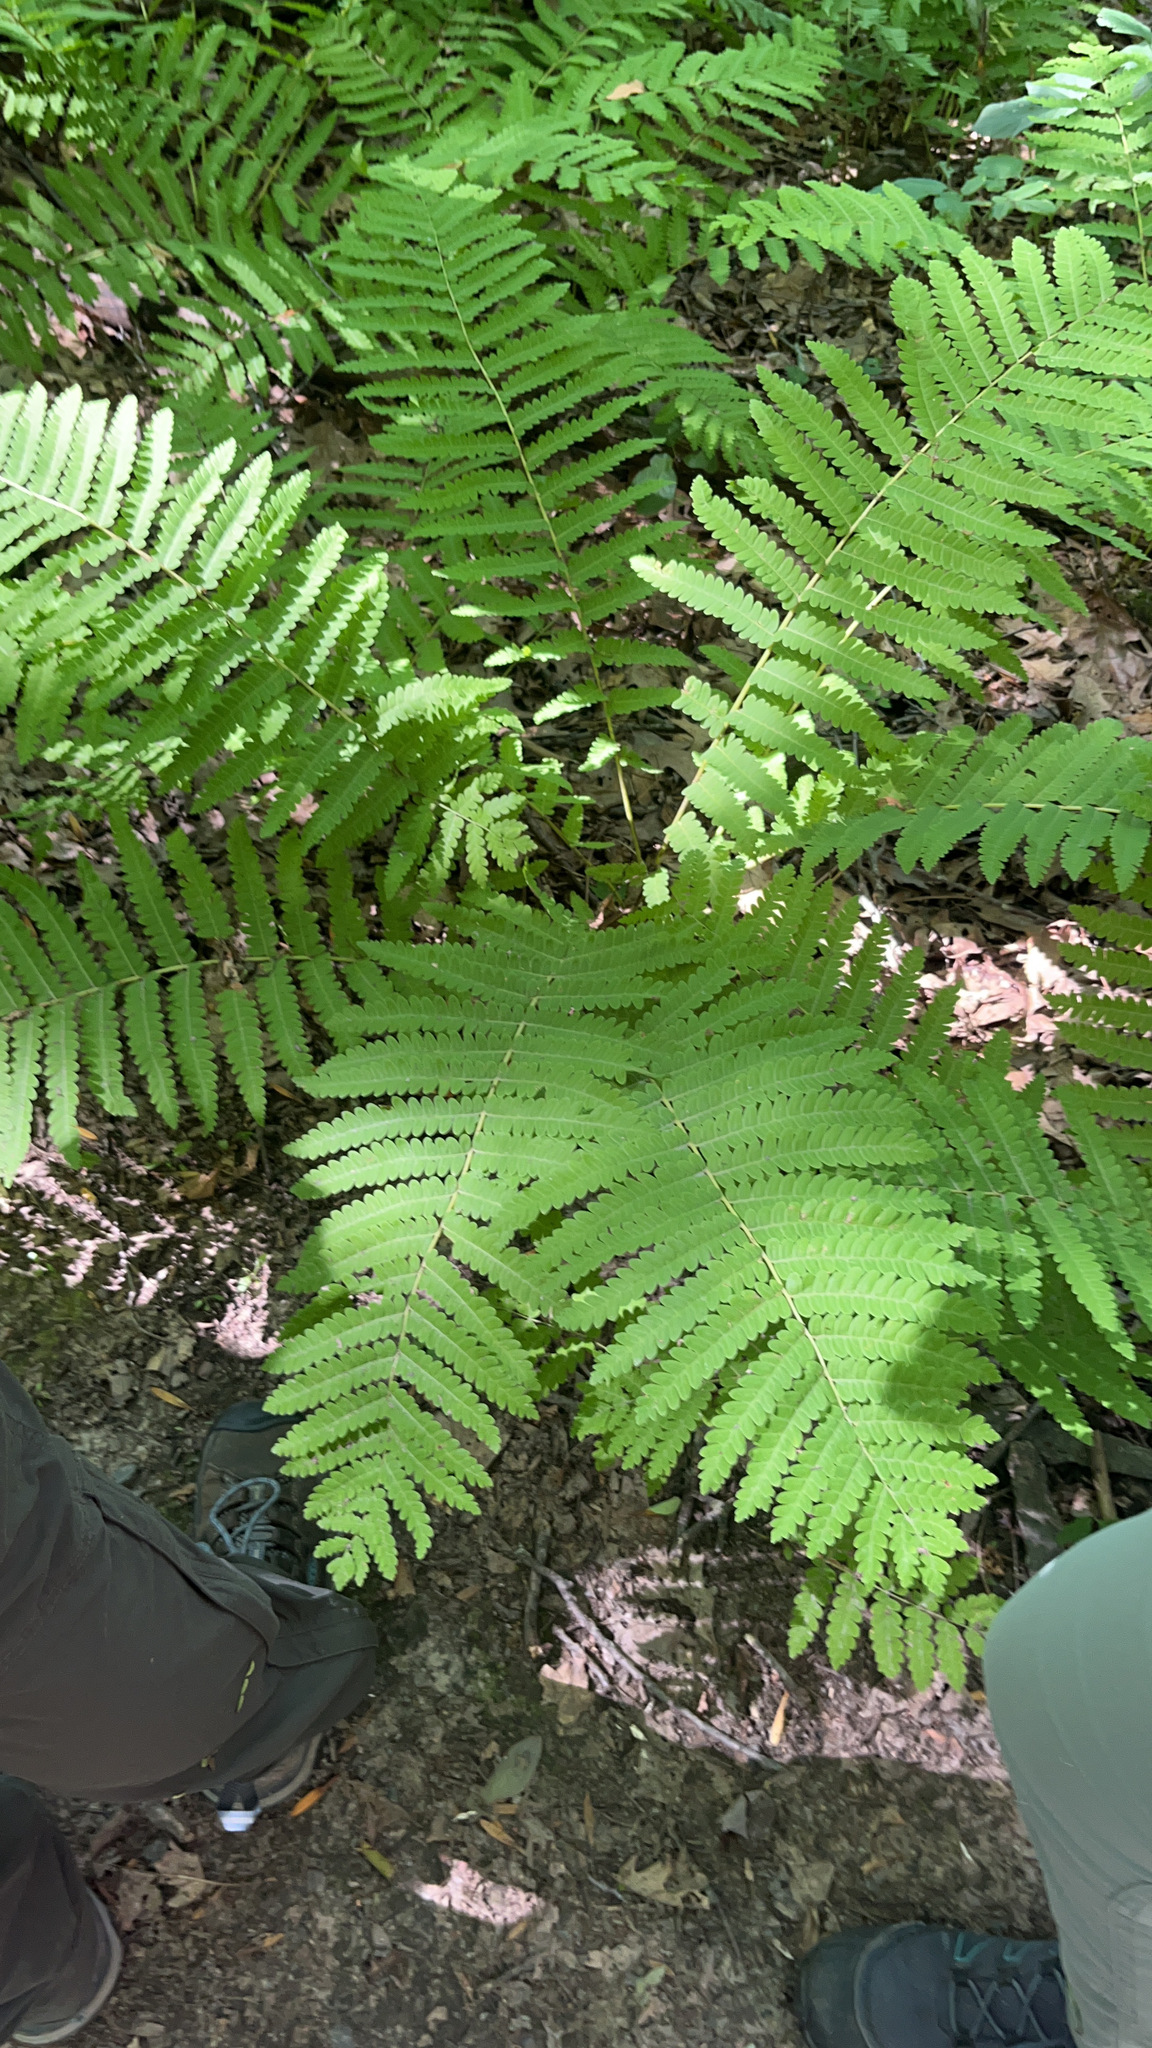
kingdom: Plantae
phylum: Tracheophyta
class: Polypodiopsida
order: Osmundales
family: Osmundaceae
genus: Claytosmunda
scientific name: Claytosmunda claytoniana
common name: Clayton's fern
